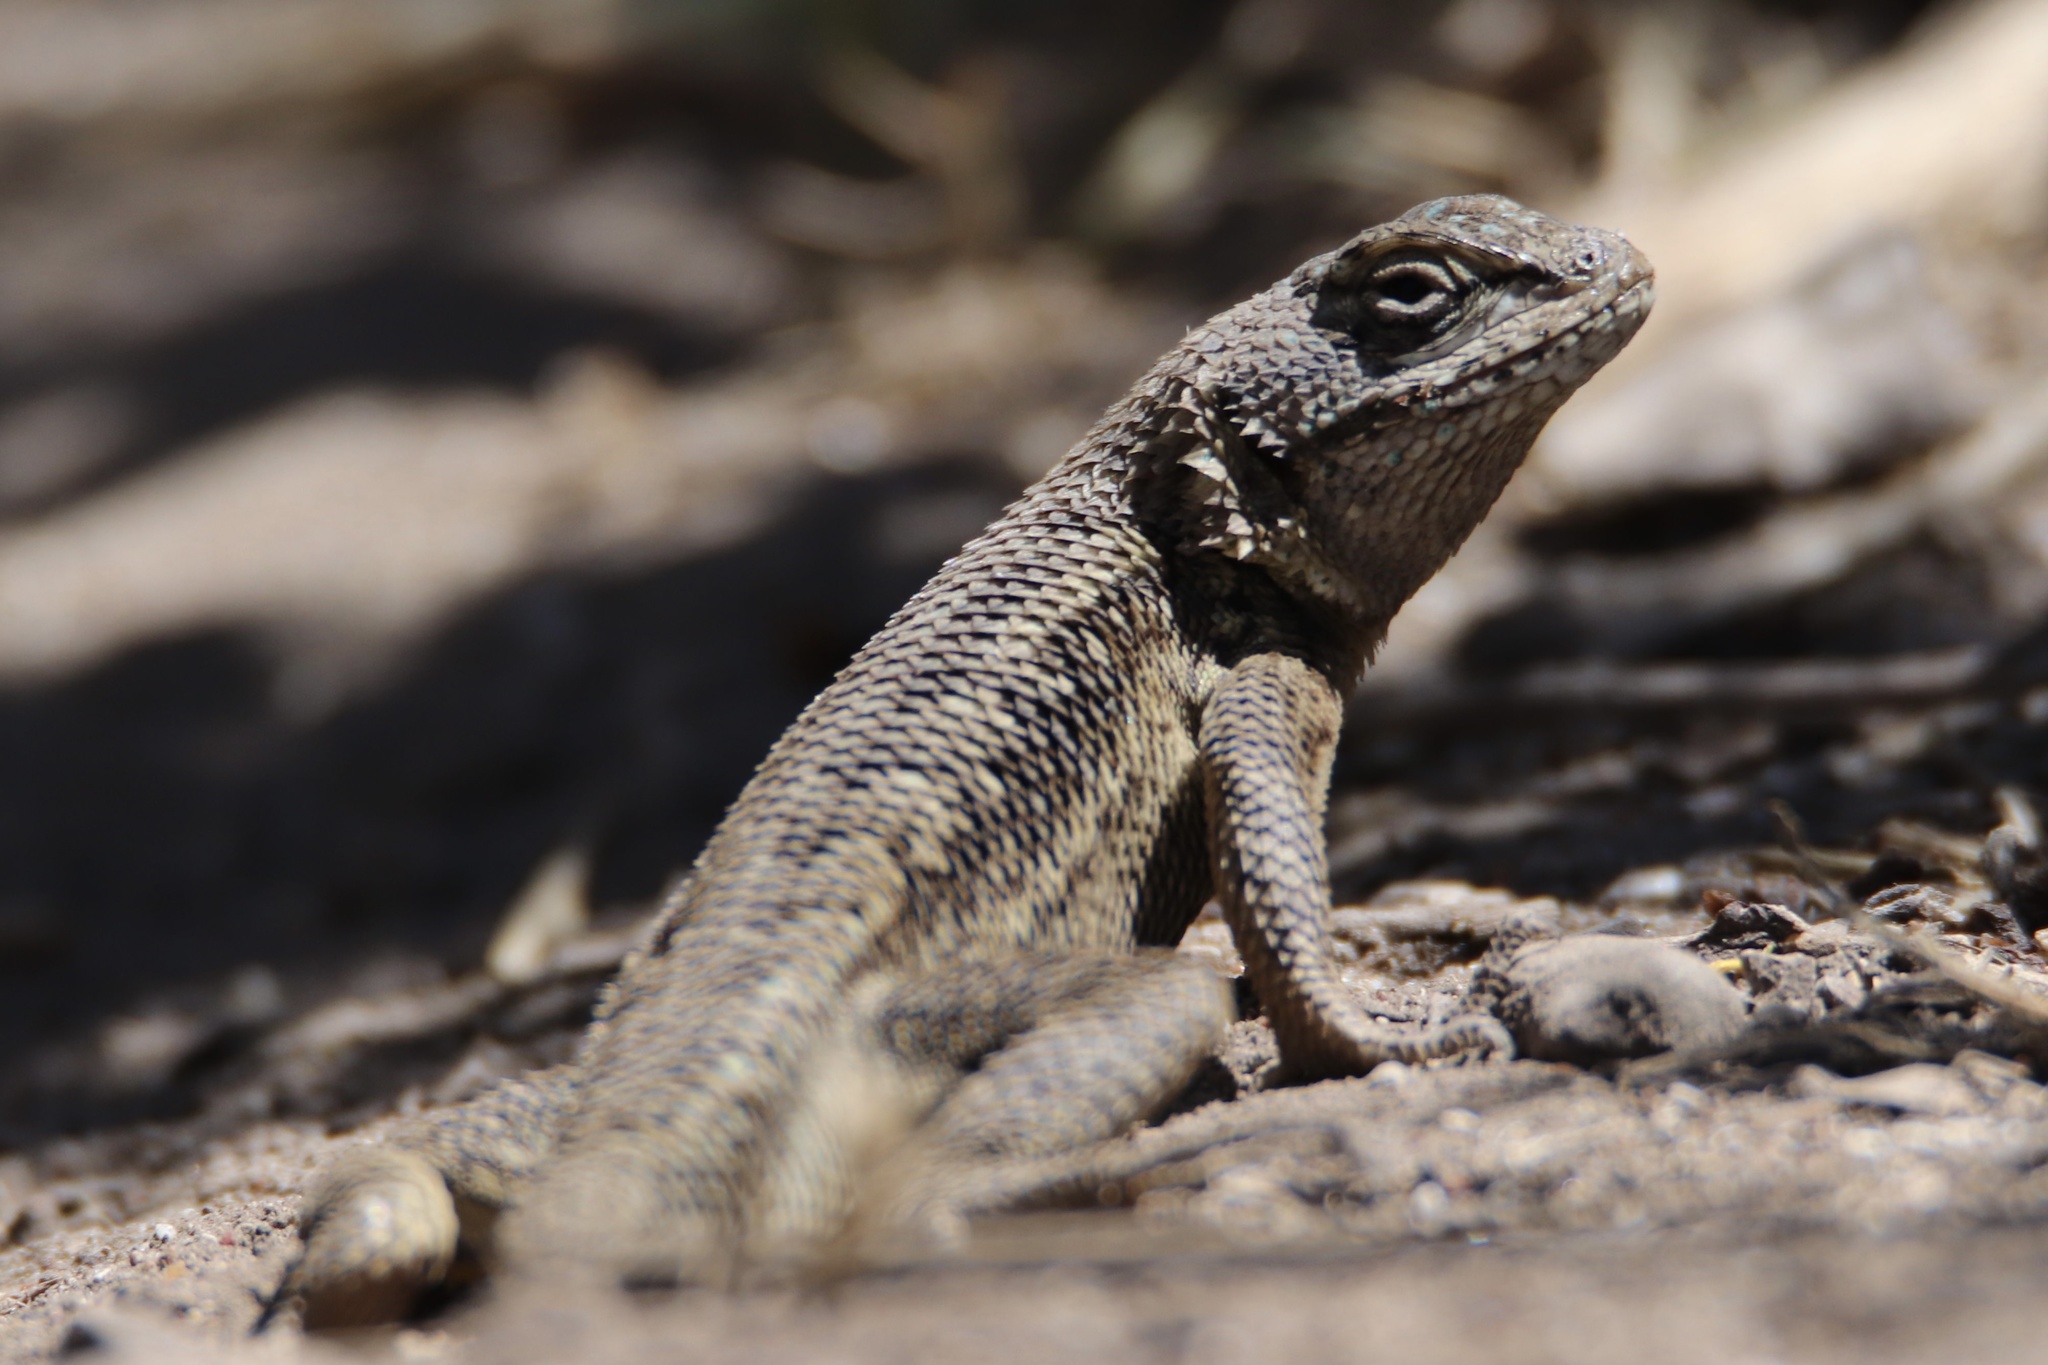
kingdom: Animalia
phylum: Chordata
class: Squamata
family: Phrynosomatidae
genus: Sceloporus
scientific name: Sceloporus occidentalis
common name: Western fence lizard
